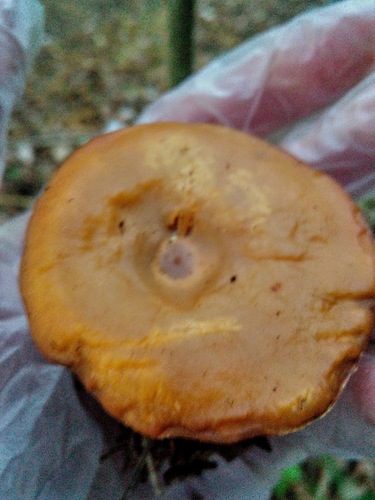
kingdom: Fungi
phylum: Basidiomycota
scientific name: Basidiomycota
